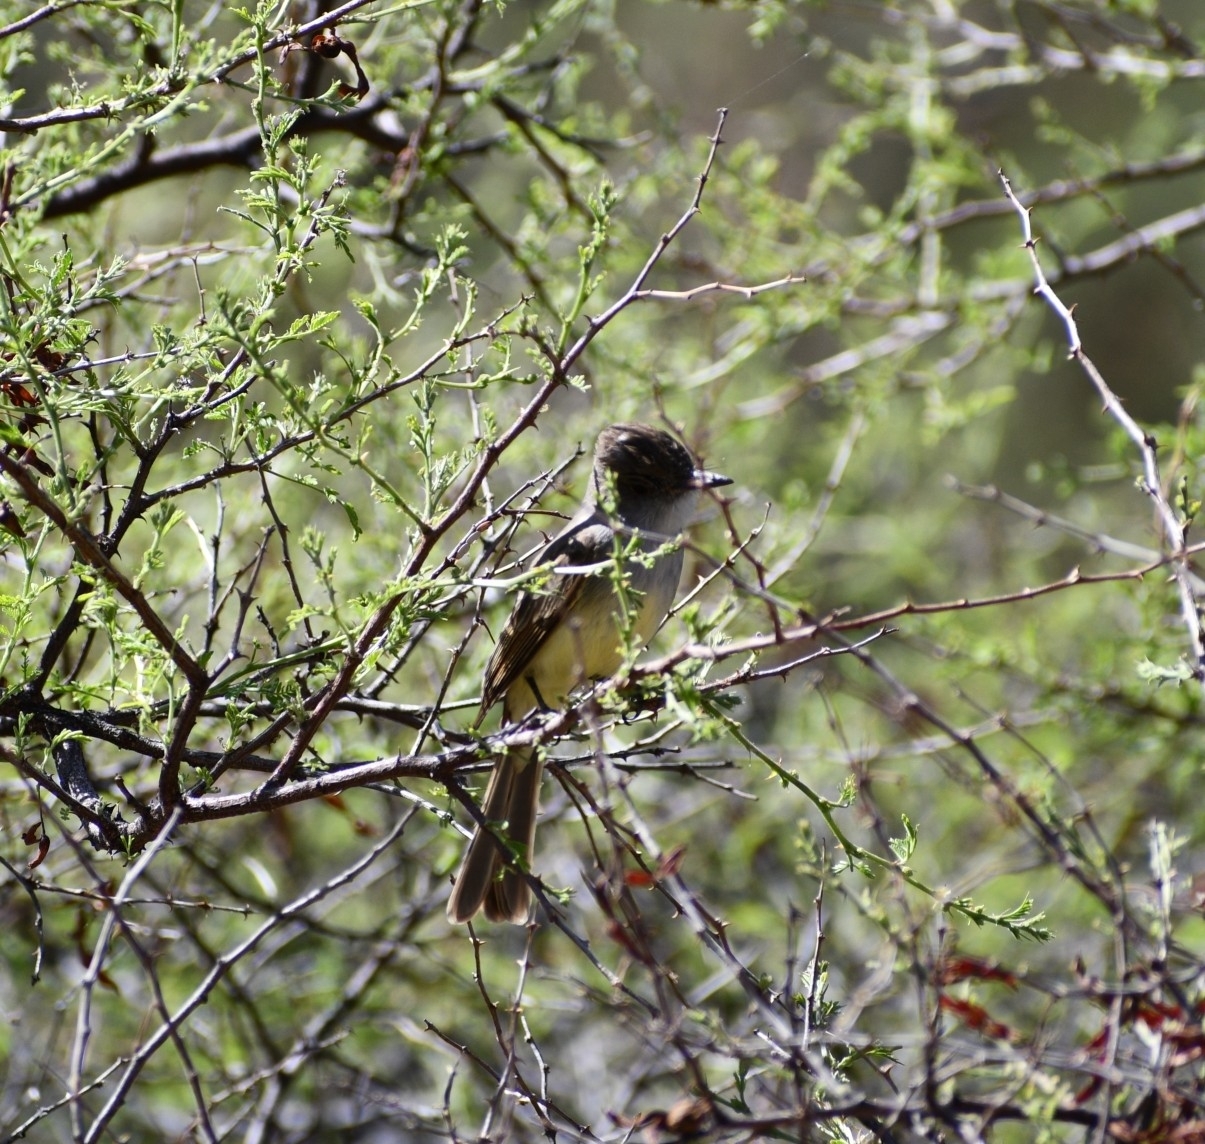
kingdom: Animalia
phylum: Chordata
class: Aves
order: Passeriformes
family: Tyrannidae
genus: Myiarchus
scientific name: Myiarchus tuberculifer
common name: Dusky-capped flycatcher
